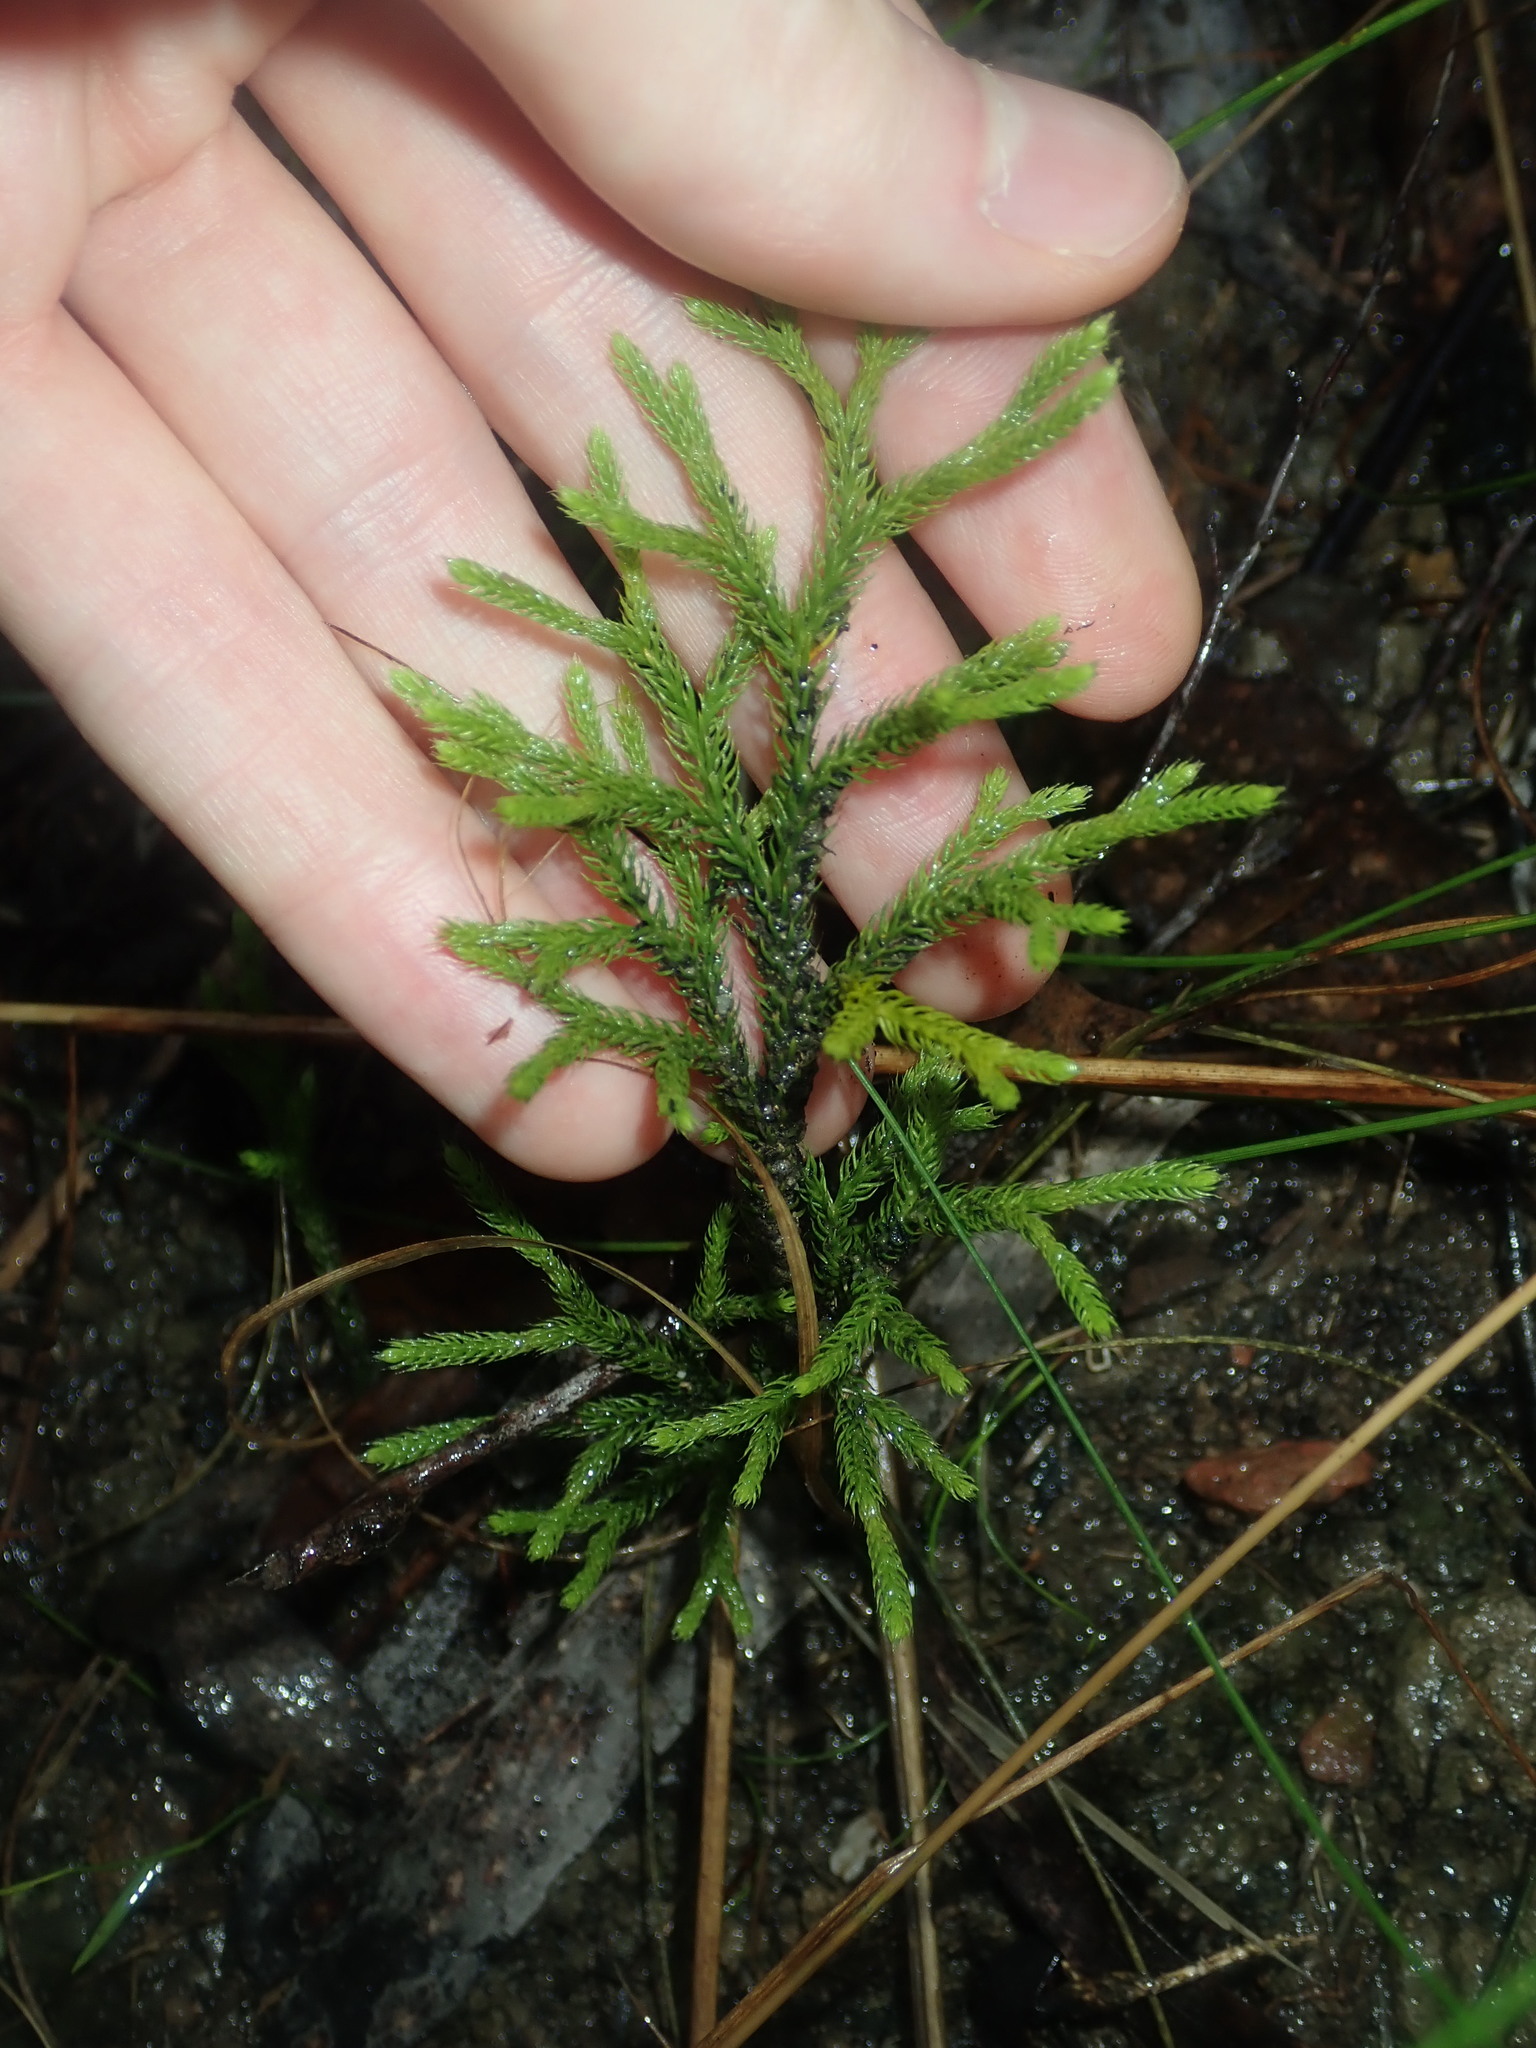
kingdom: Plantae
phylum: Tracheophyta
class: Lycopodiopsida
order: Lycopodiales
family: Lycopodiaceae
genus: Pseudolycopodium
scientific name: Pseudolycopodium densum
